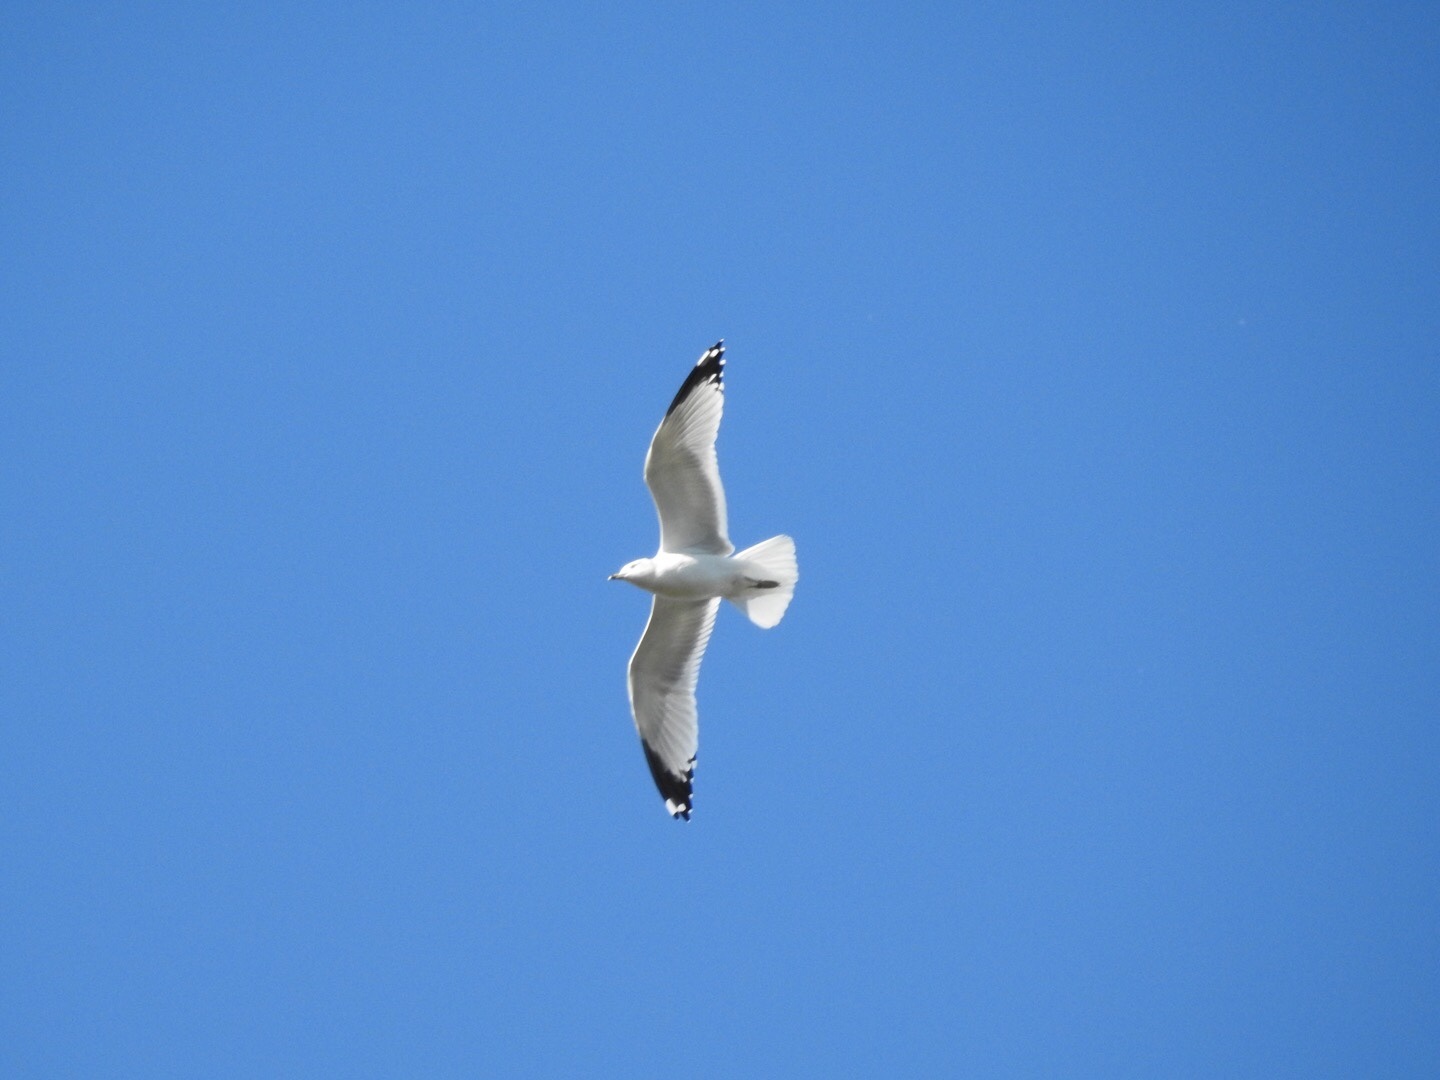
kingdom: Animalia
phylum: Chordata
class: Aves
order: Charadriiformes
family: Laridae
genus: Larus
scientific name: Larus delawarensis
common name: Ring-billed gull
